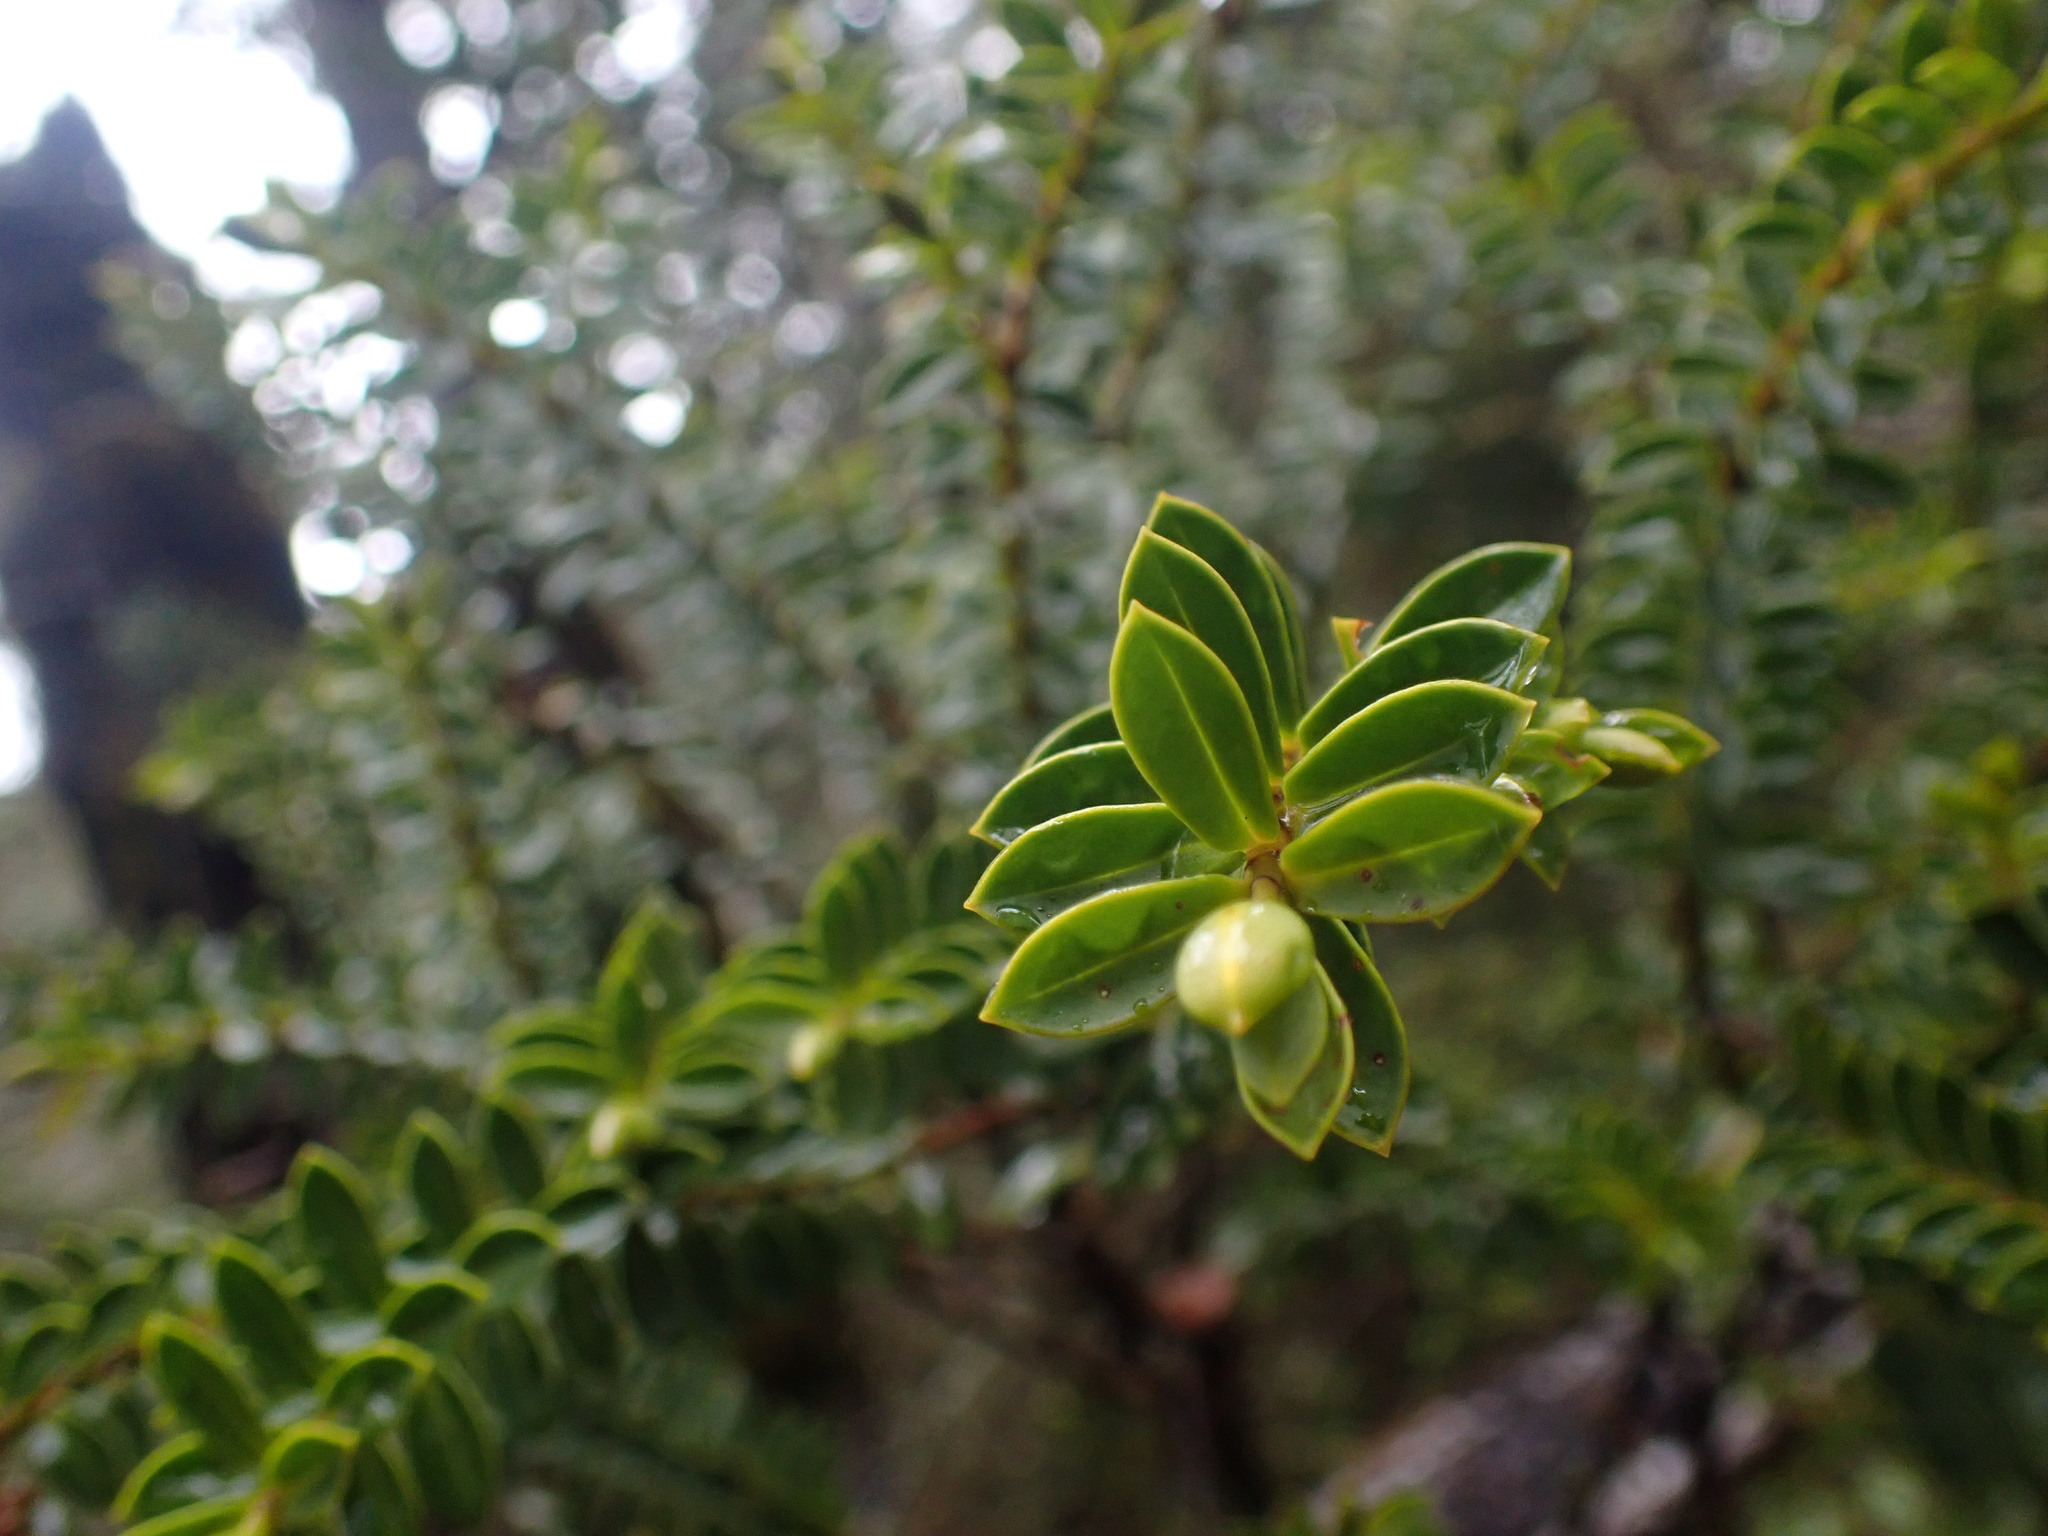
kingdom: Plantae
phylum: Tracheophyta
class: Magnoliopsida
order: Lamiales
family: Plantaginaceae
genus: Veronica
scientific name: Veronica venustula
